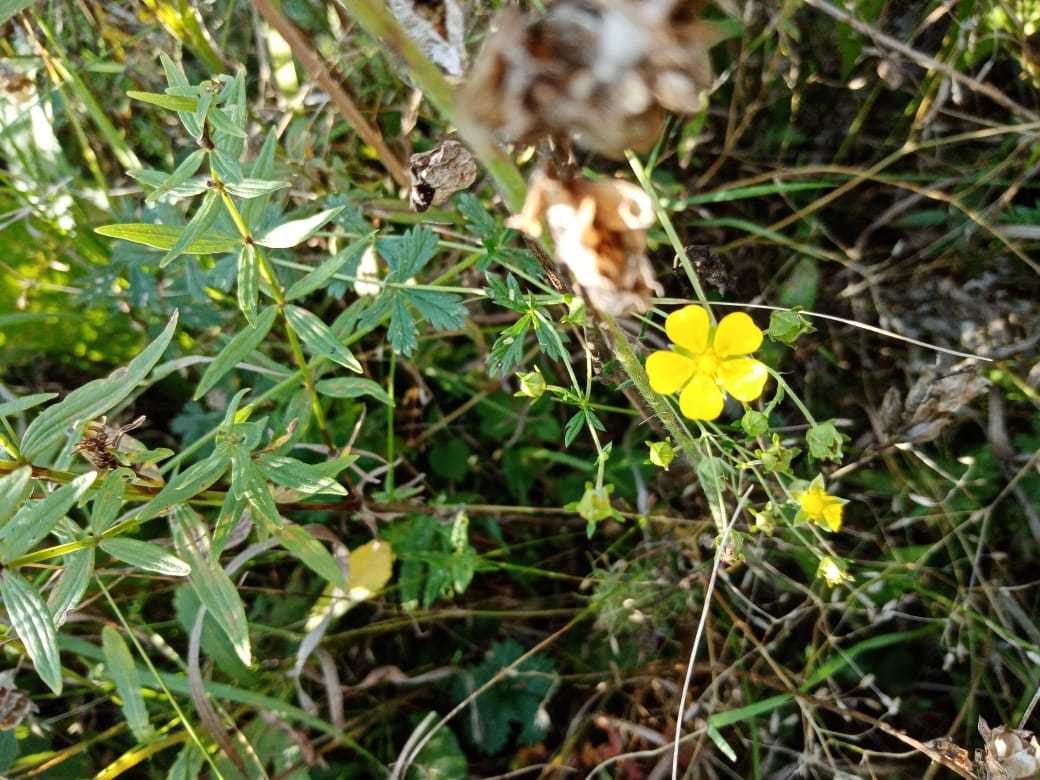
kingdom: Plantae
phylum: Tracheophyta
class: Magnoliopsida
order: Rosales
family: Rosaceae
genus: Potentilla
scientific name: Potentilla argentea
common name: Hoary cinquefoil
